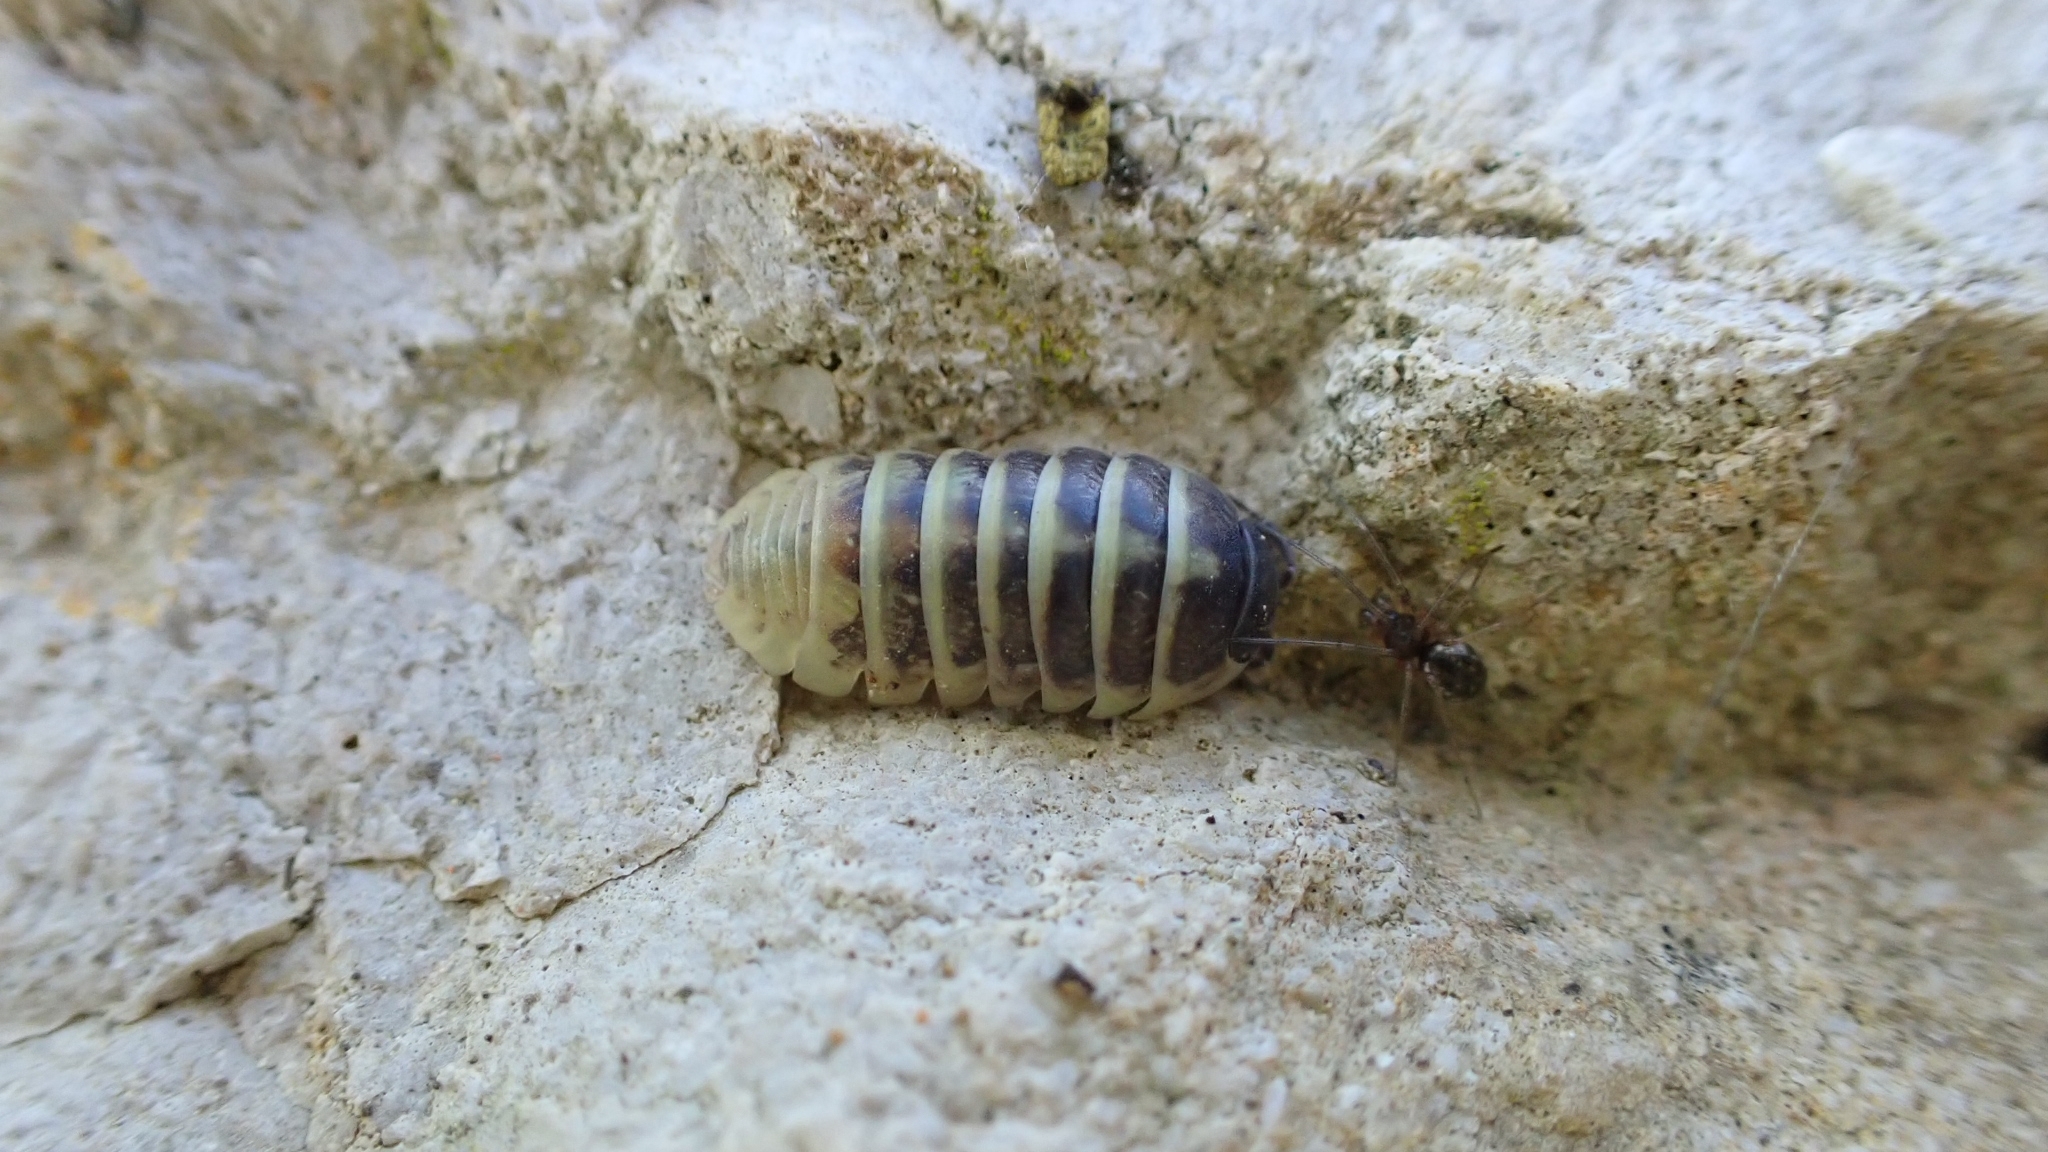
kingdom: Animalia
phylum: Arthropoda
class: Malacostraca
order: Isopoda
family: Armadillidiidae
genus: Armadillidium
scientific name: Armadillidium vulgare
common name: Common pill woodlouse
